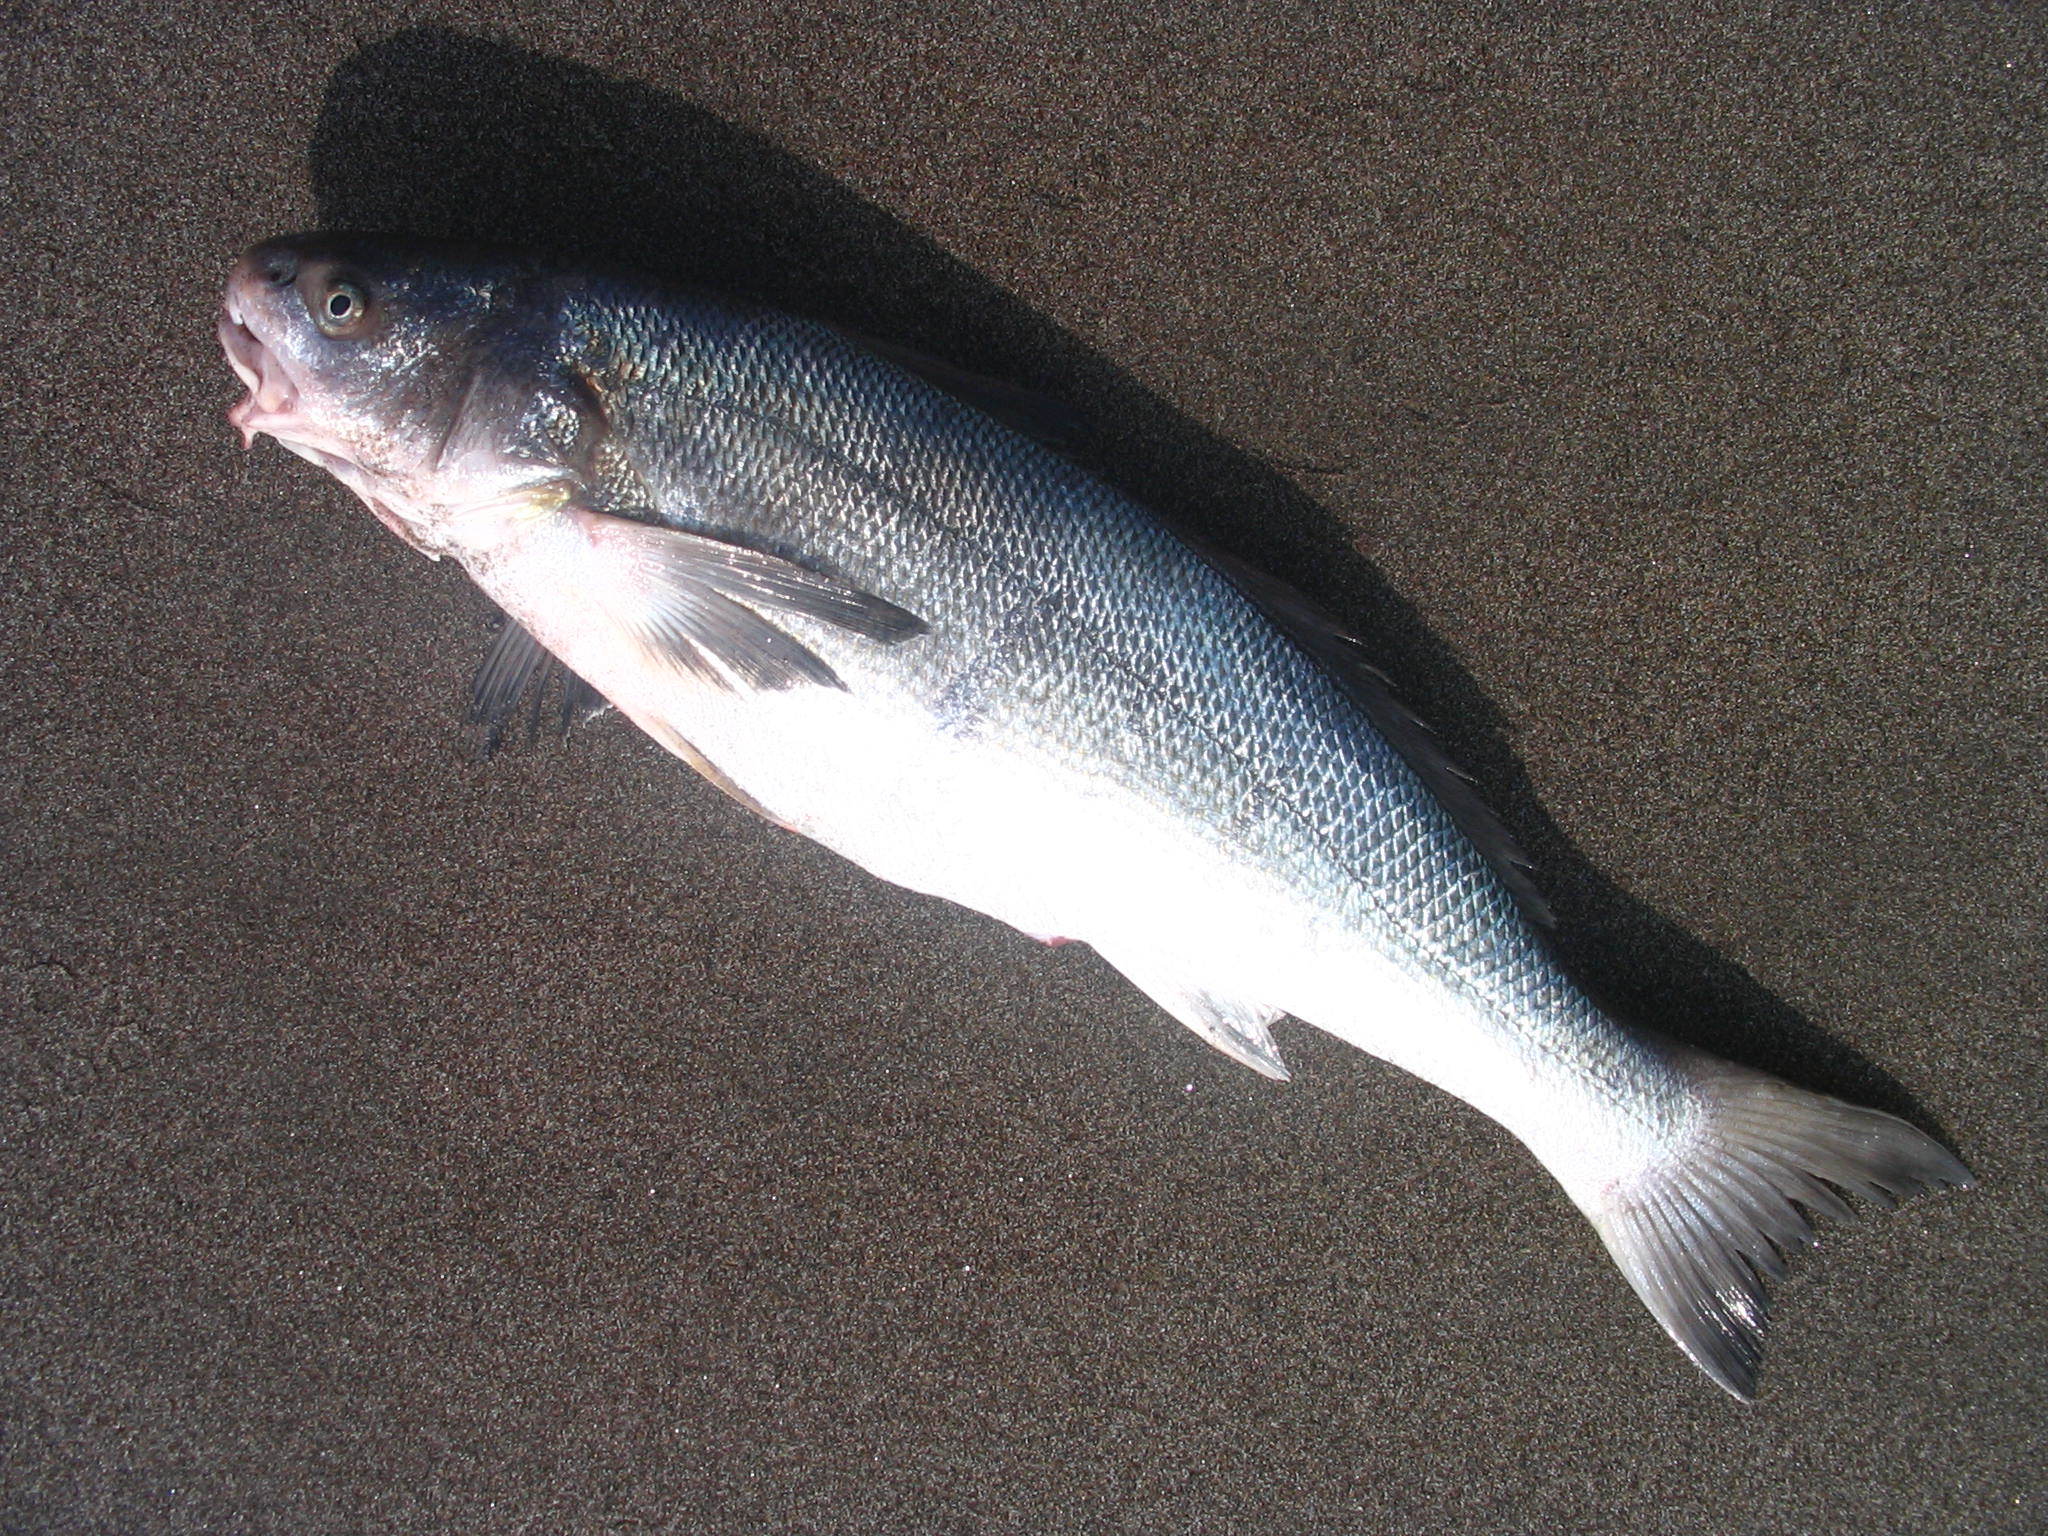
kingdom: Animalia
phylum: Chordata
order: Perciformes
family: Sciaenidae
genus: Menticirrhus
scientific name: Menticirrhus ophicephalus
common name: Snakehead kingcroaker
